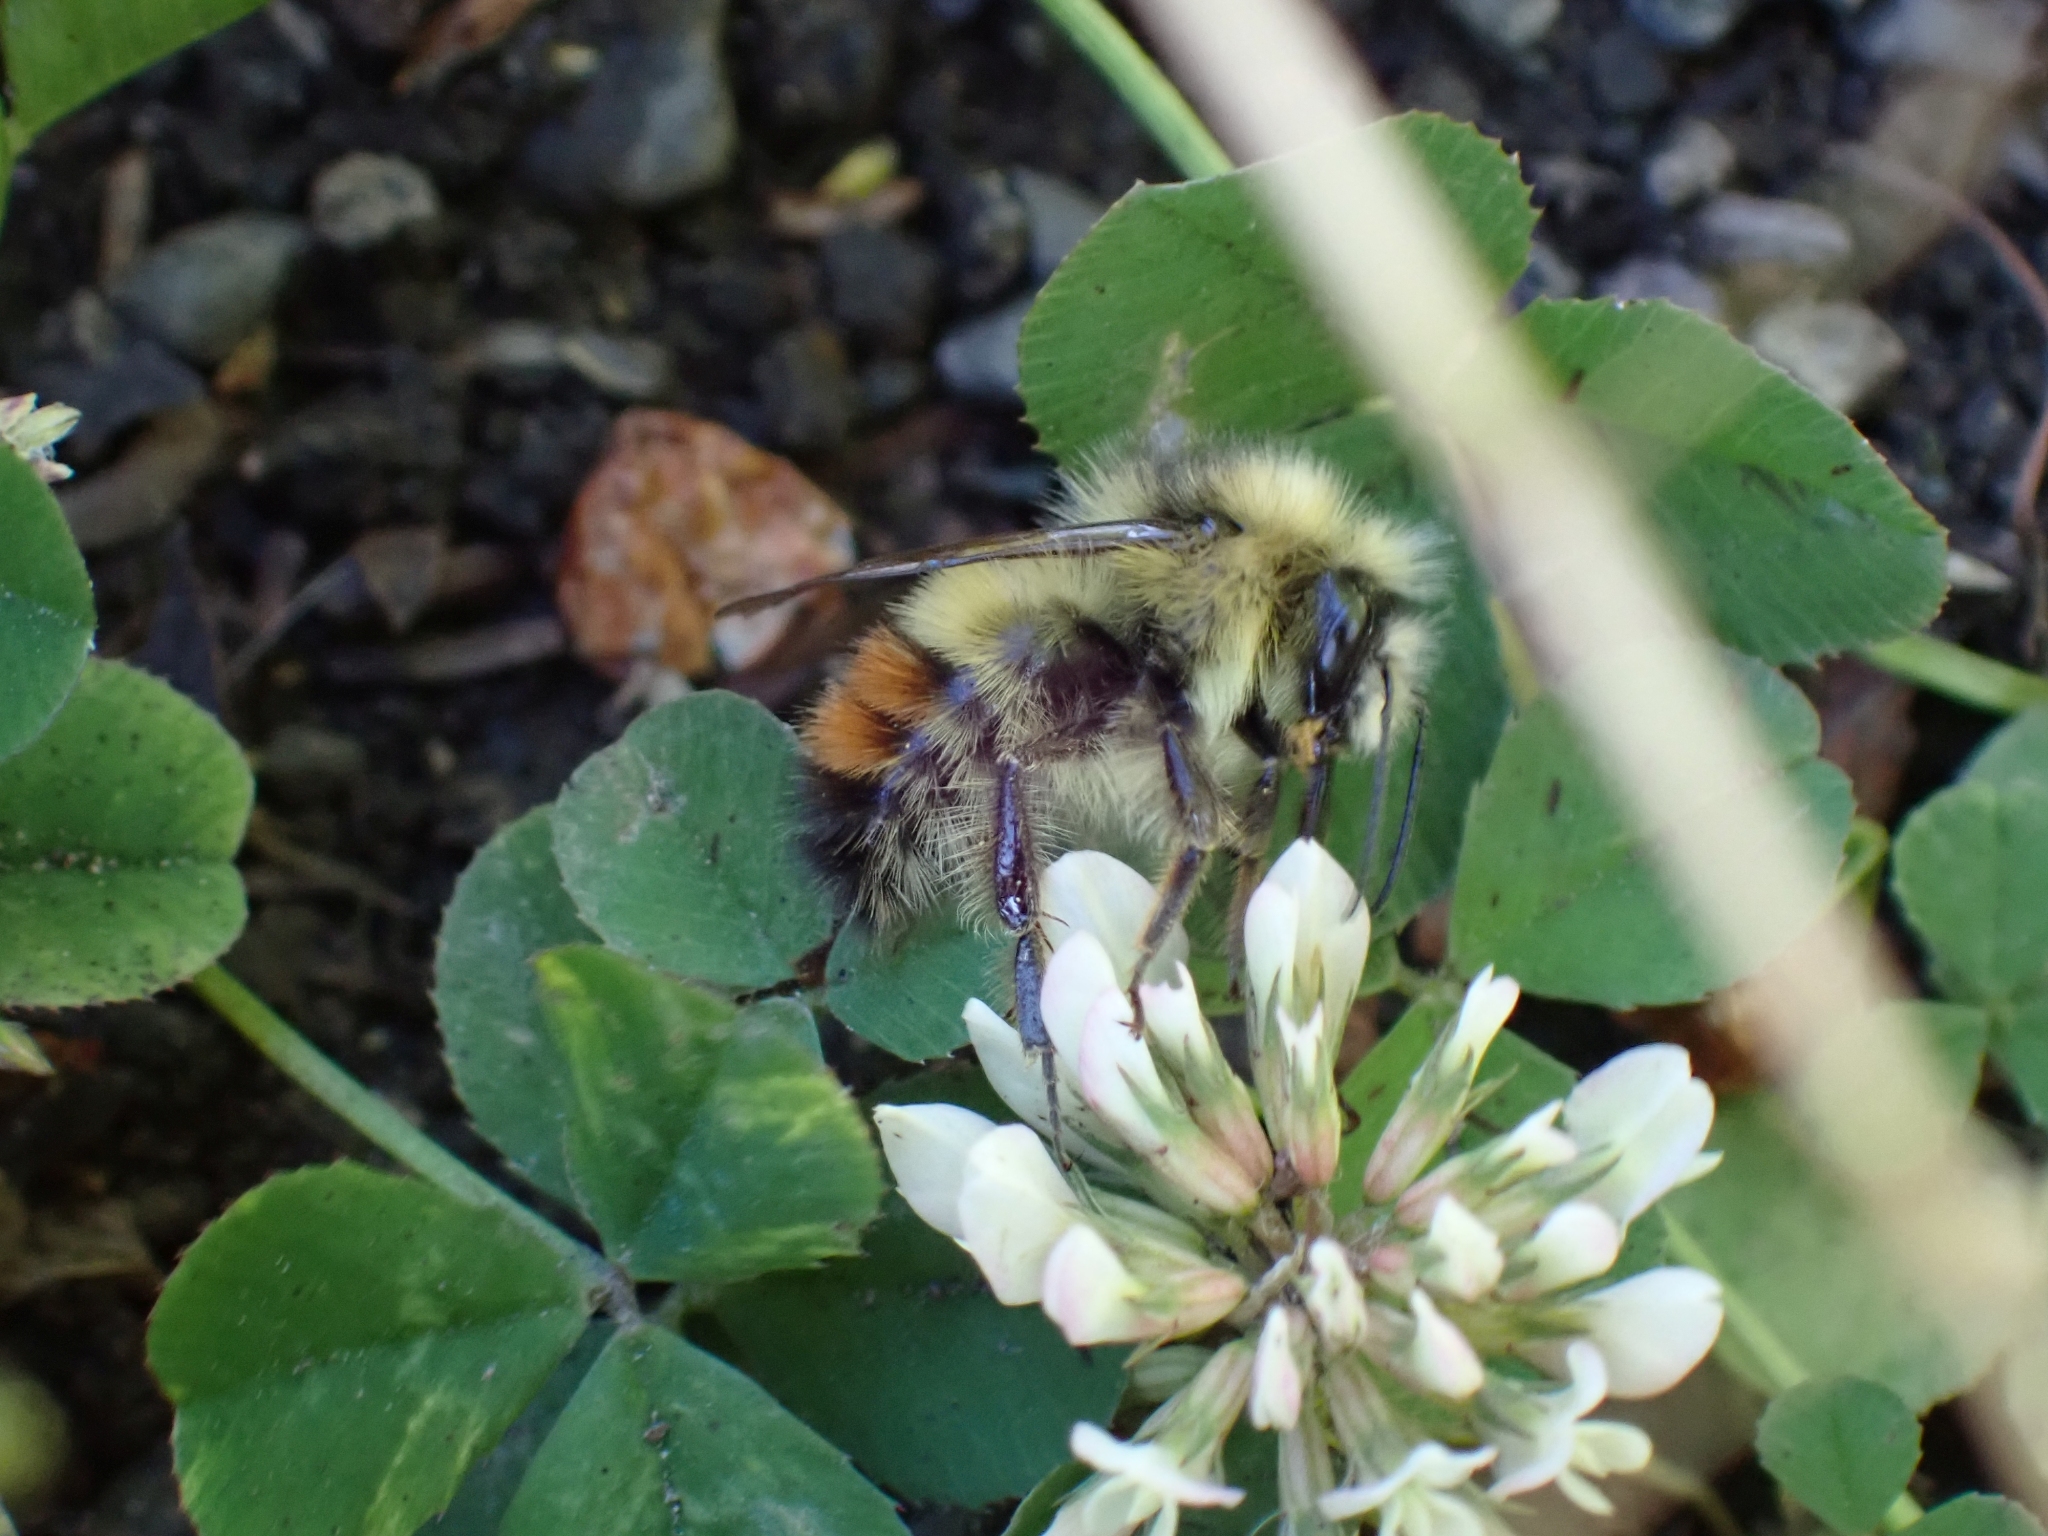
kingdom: Animalia
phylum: Arthropoda
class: Insecta
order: Hymenoptera
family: Apidae
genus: Bombus
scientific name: Bombus flavifrons
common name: Yellow head bumble bee
